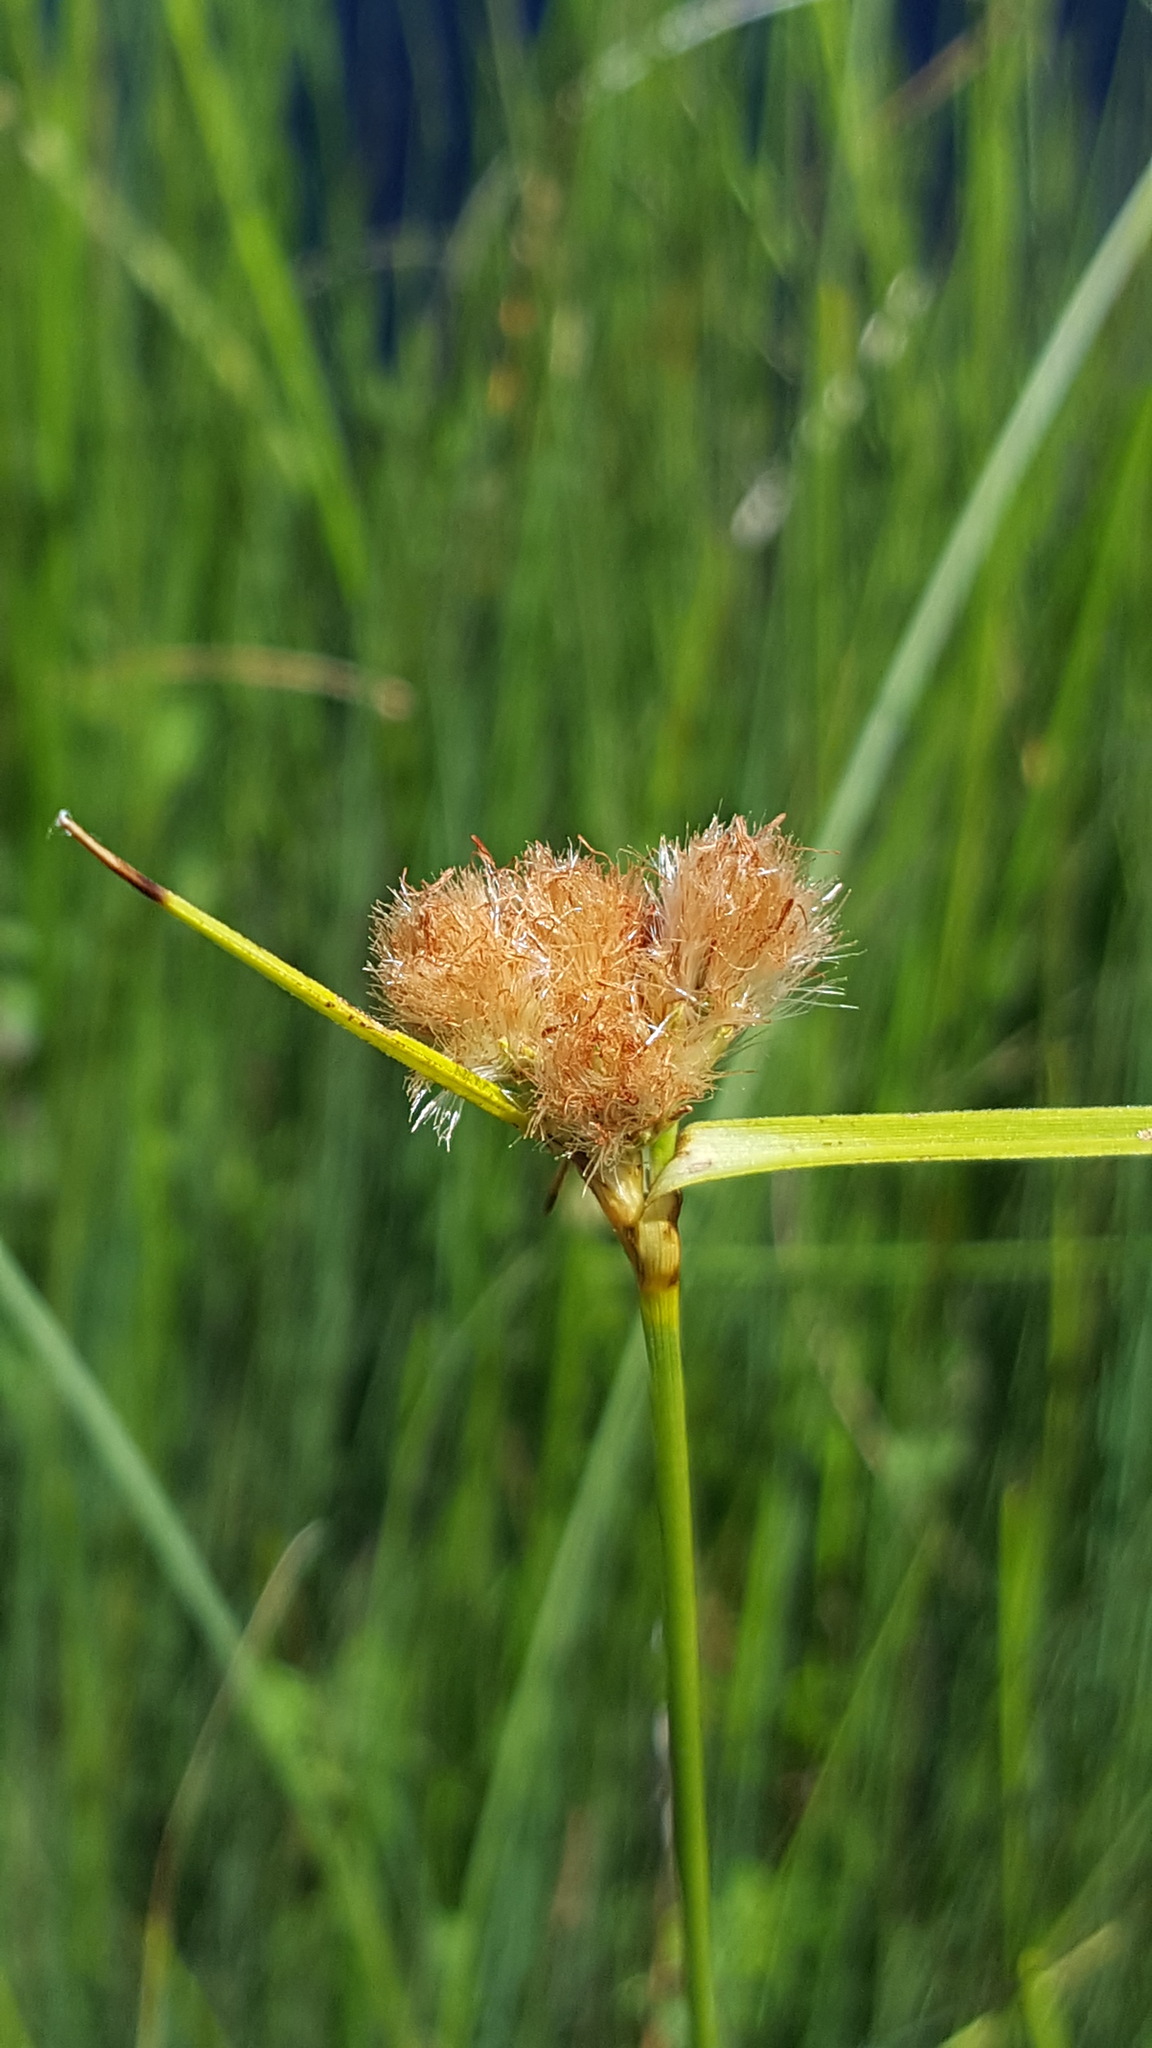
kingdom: Plantae
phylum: Tracheophyta
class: Liliopsida
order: Poales
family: Cyperaceae
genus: Eriophorum
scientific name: Eriophorum virginicum
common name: Tawny cottongrass
